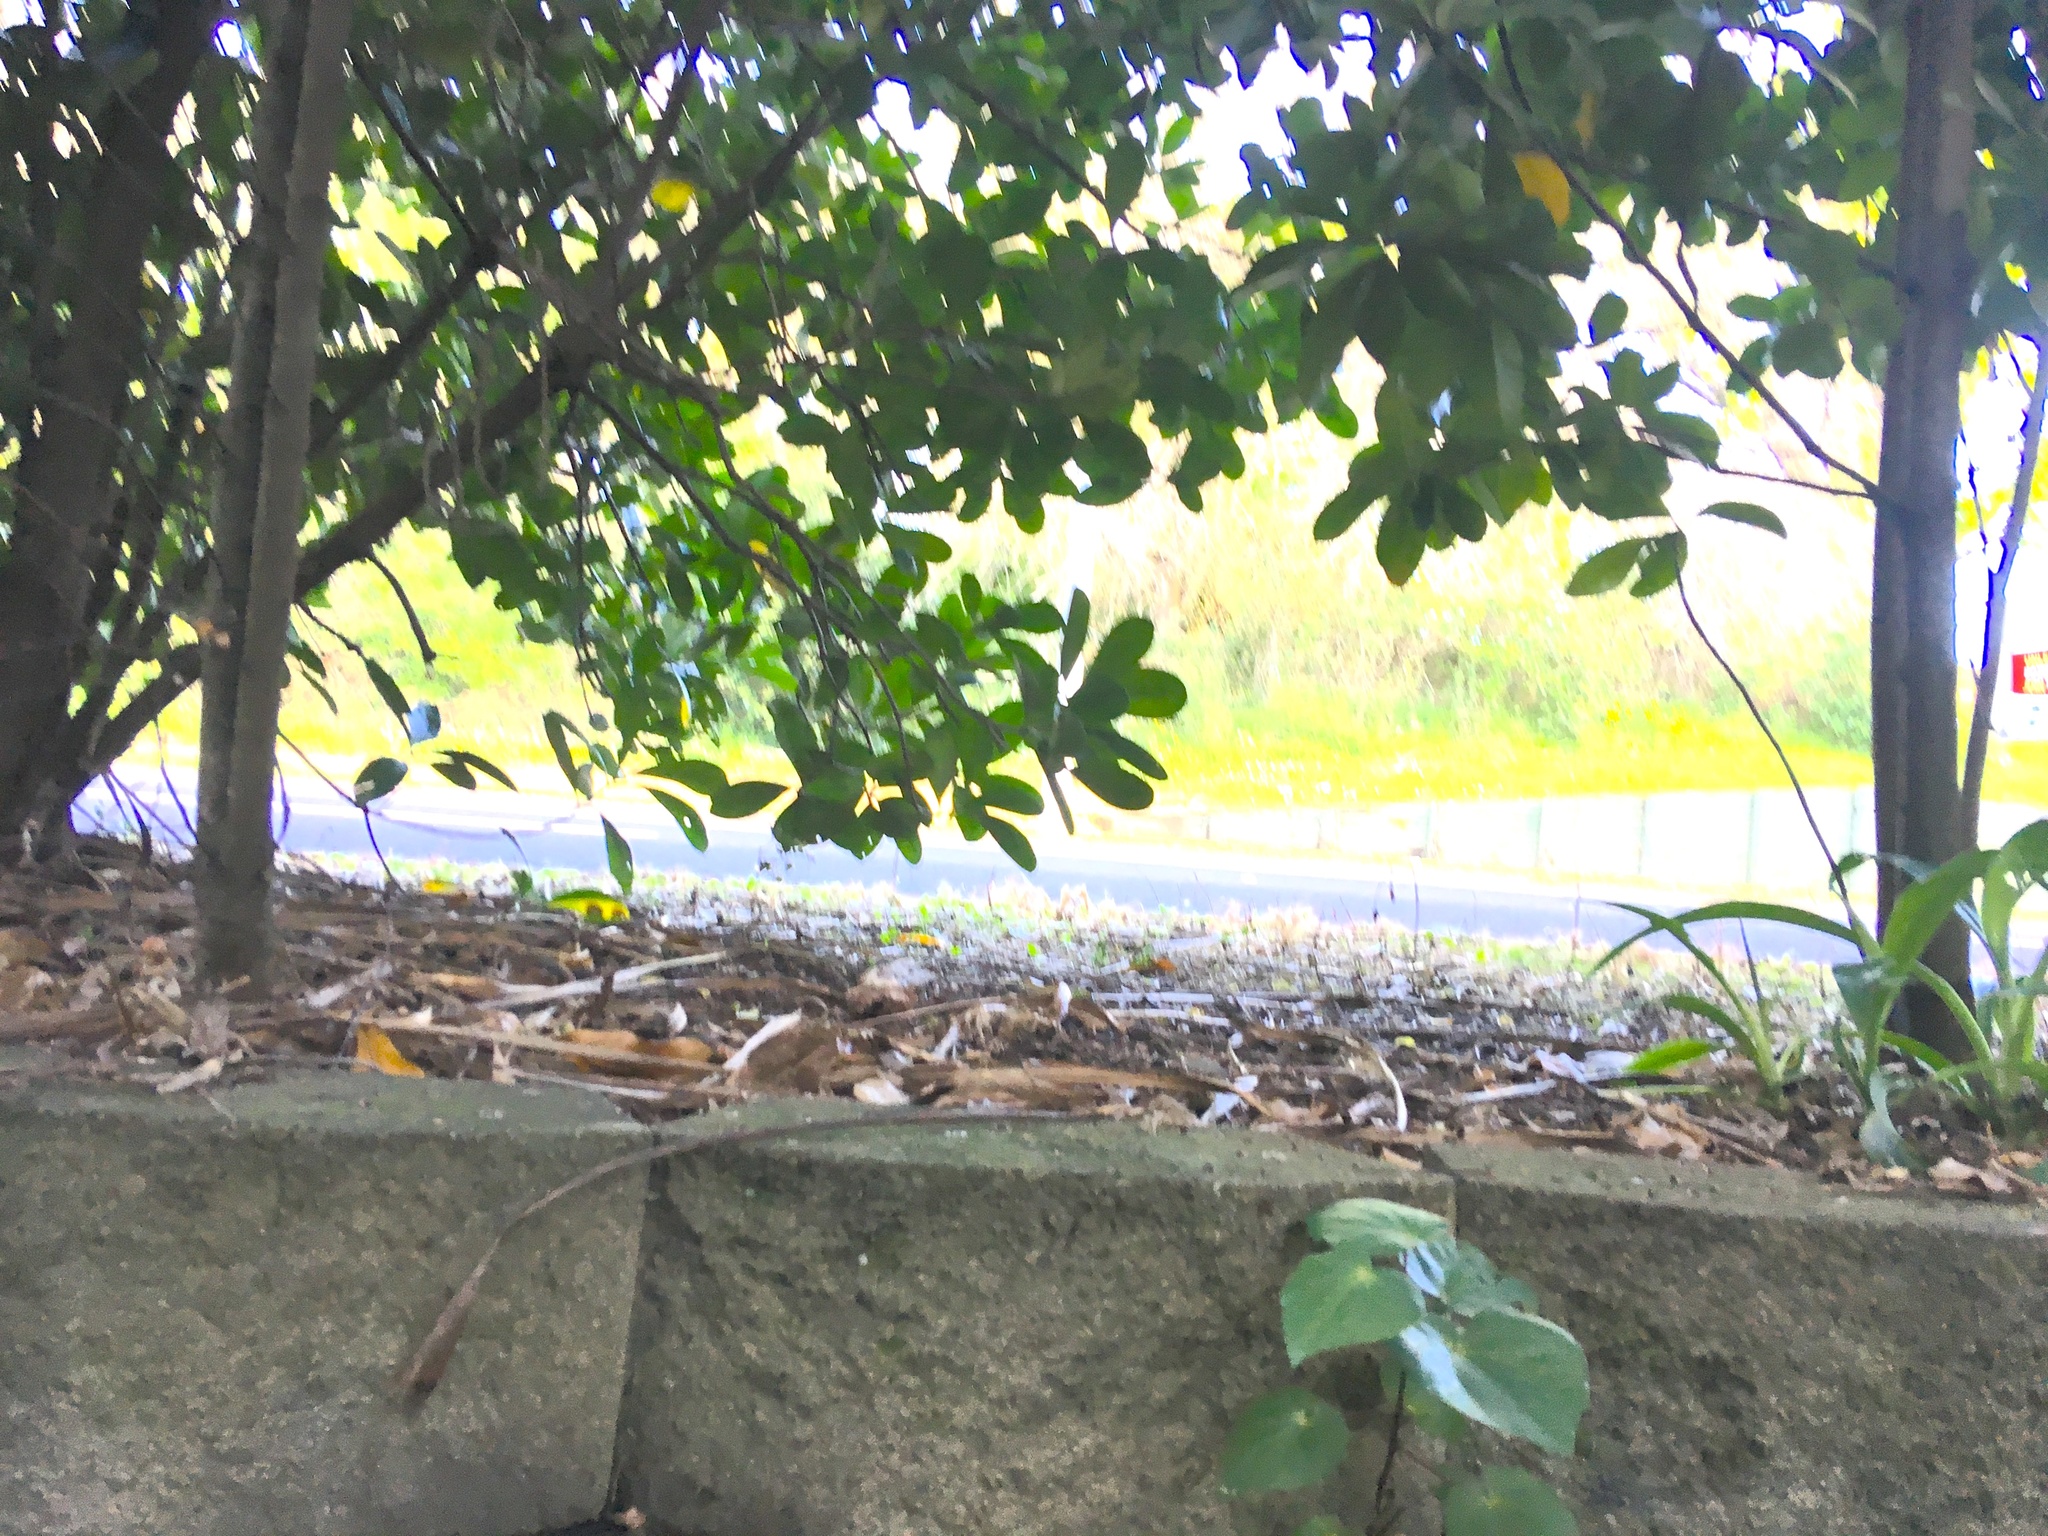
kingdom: Plantae
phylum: Tracheophyta
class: Magnoliopsida
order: Piperales
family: Piperaceae
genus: Macropiper
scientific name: Macropiper excelsum
